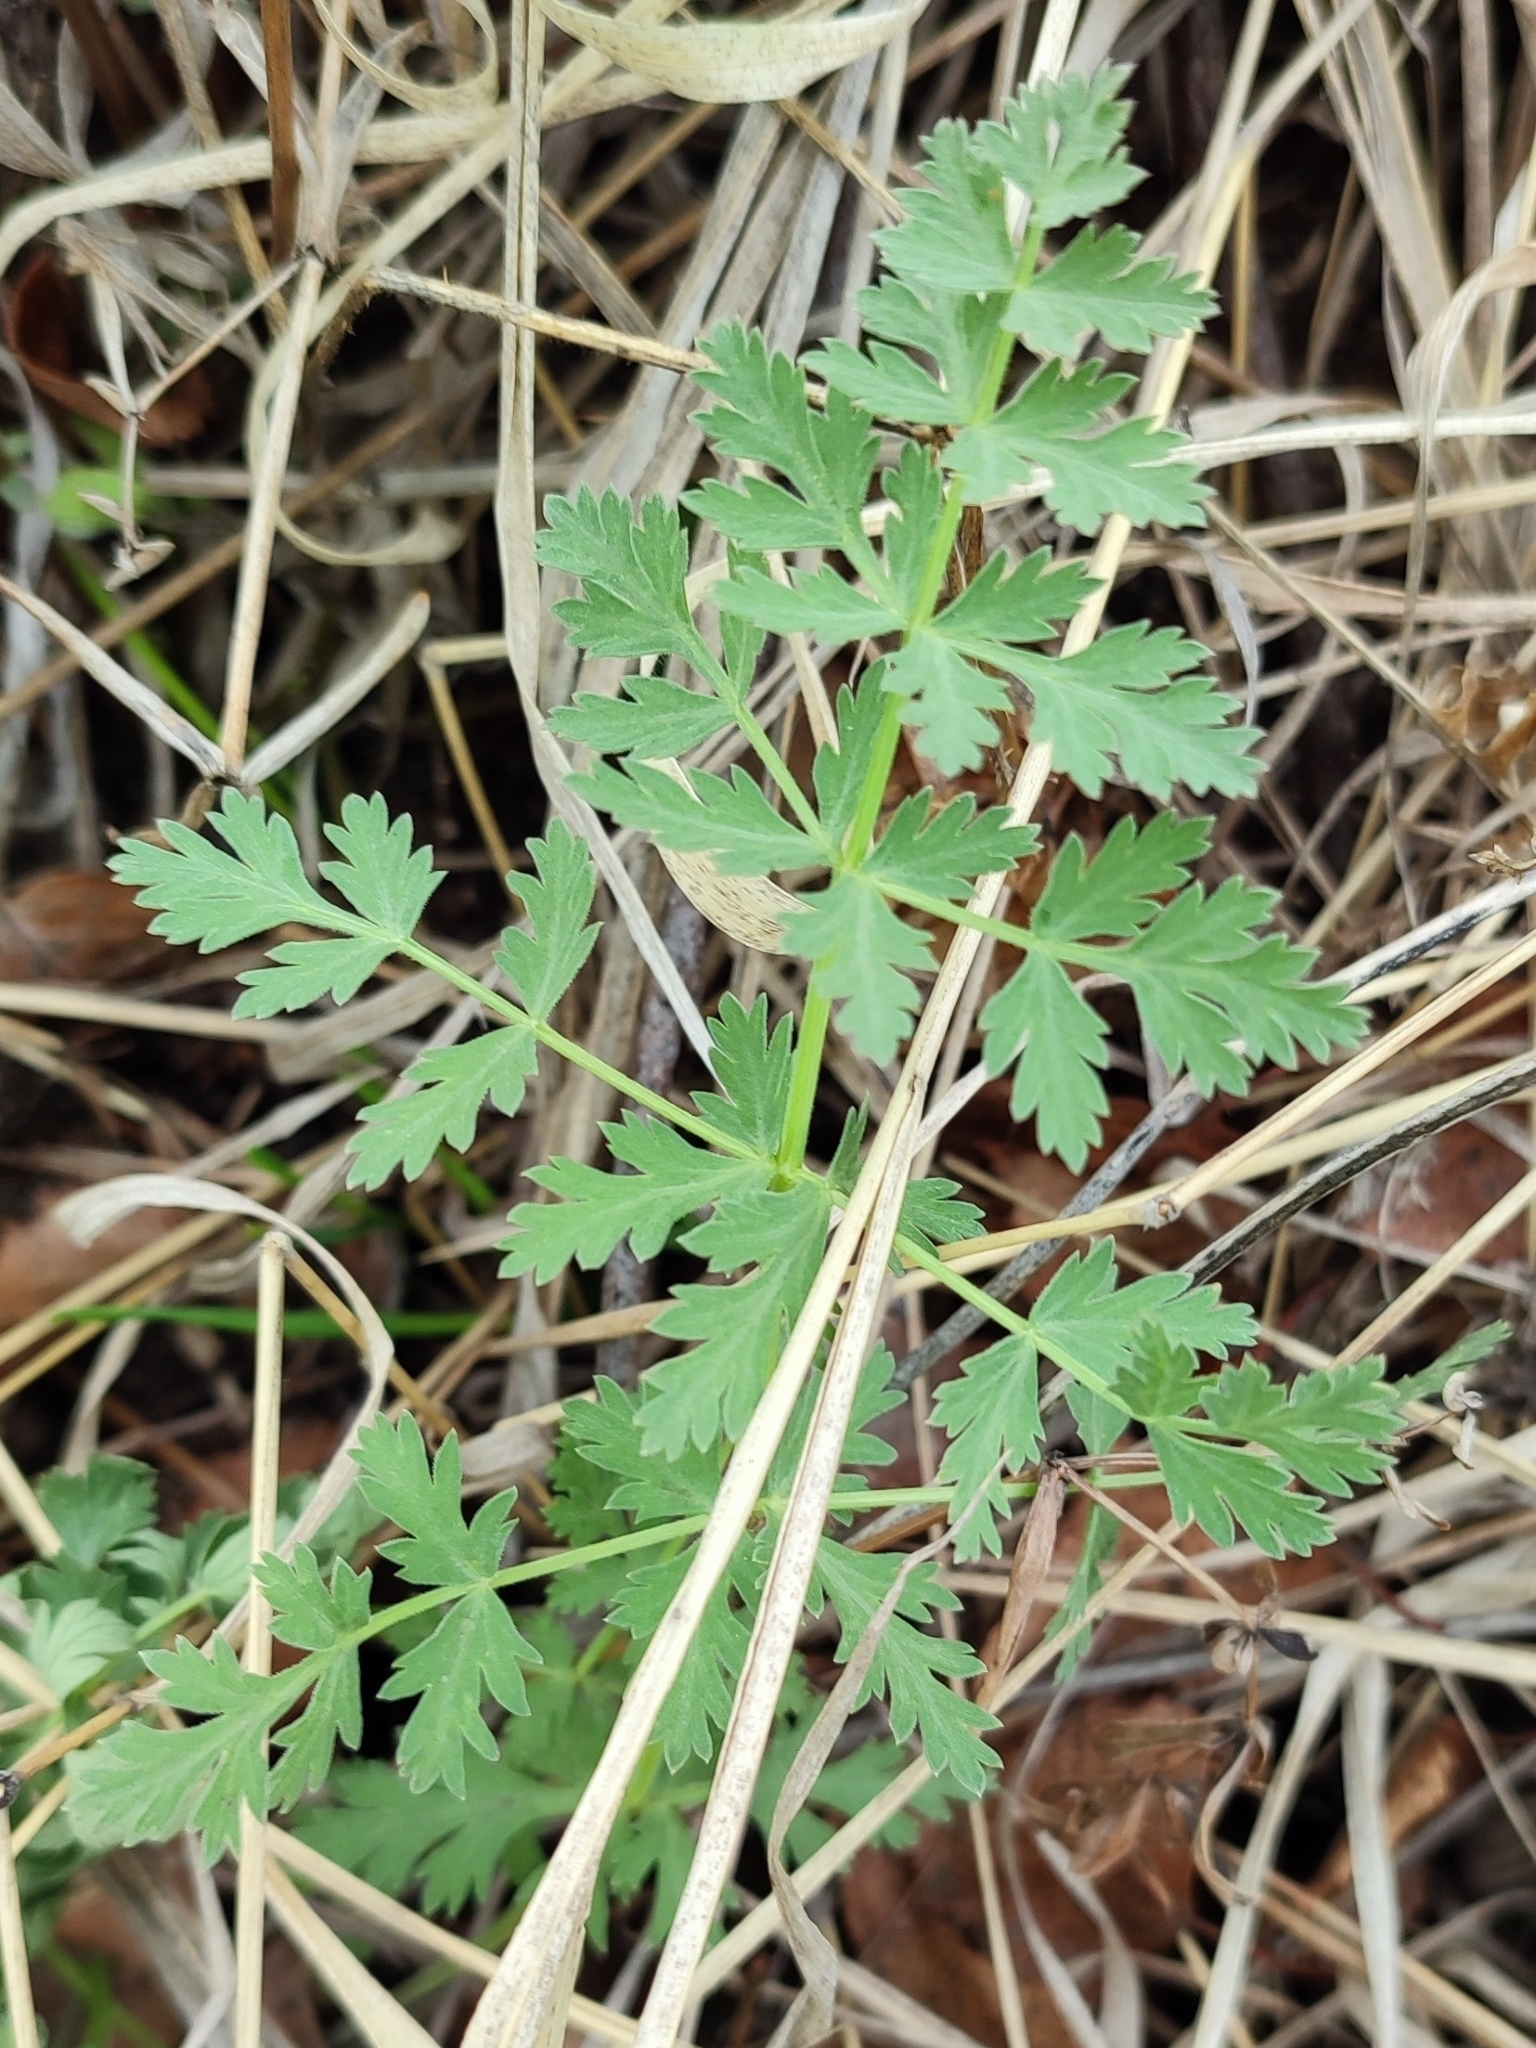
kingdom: Plantae
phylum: Tracheophyta
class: Magnoliopsida
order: Apiales
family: Apiaceae
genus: Seseli
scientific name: Seseli libanotis
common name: Mooncarrot
